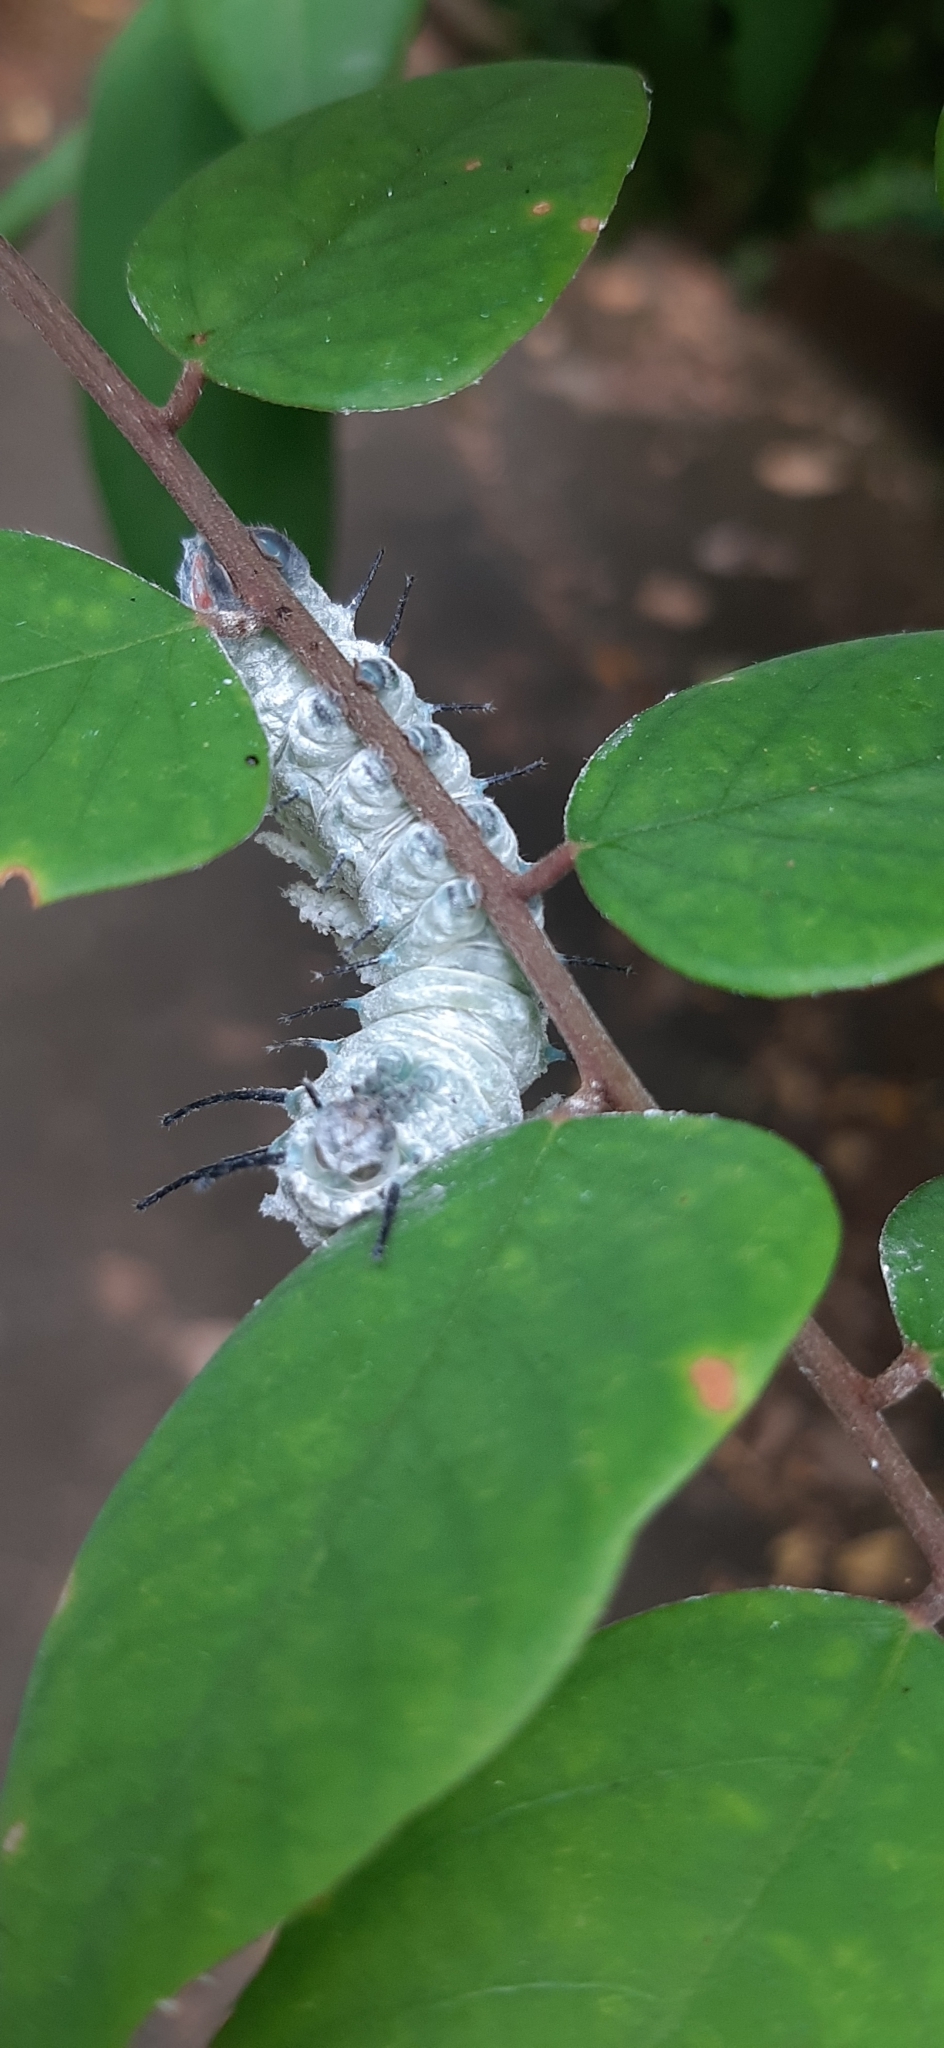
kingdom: Animalia
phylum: Arthropoda
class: Insecta
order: Lepidoptera
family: Saturniidae
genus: Attacus
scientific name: Attacus atlas
